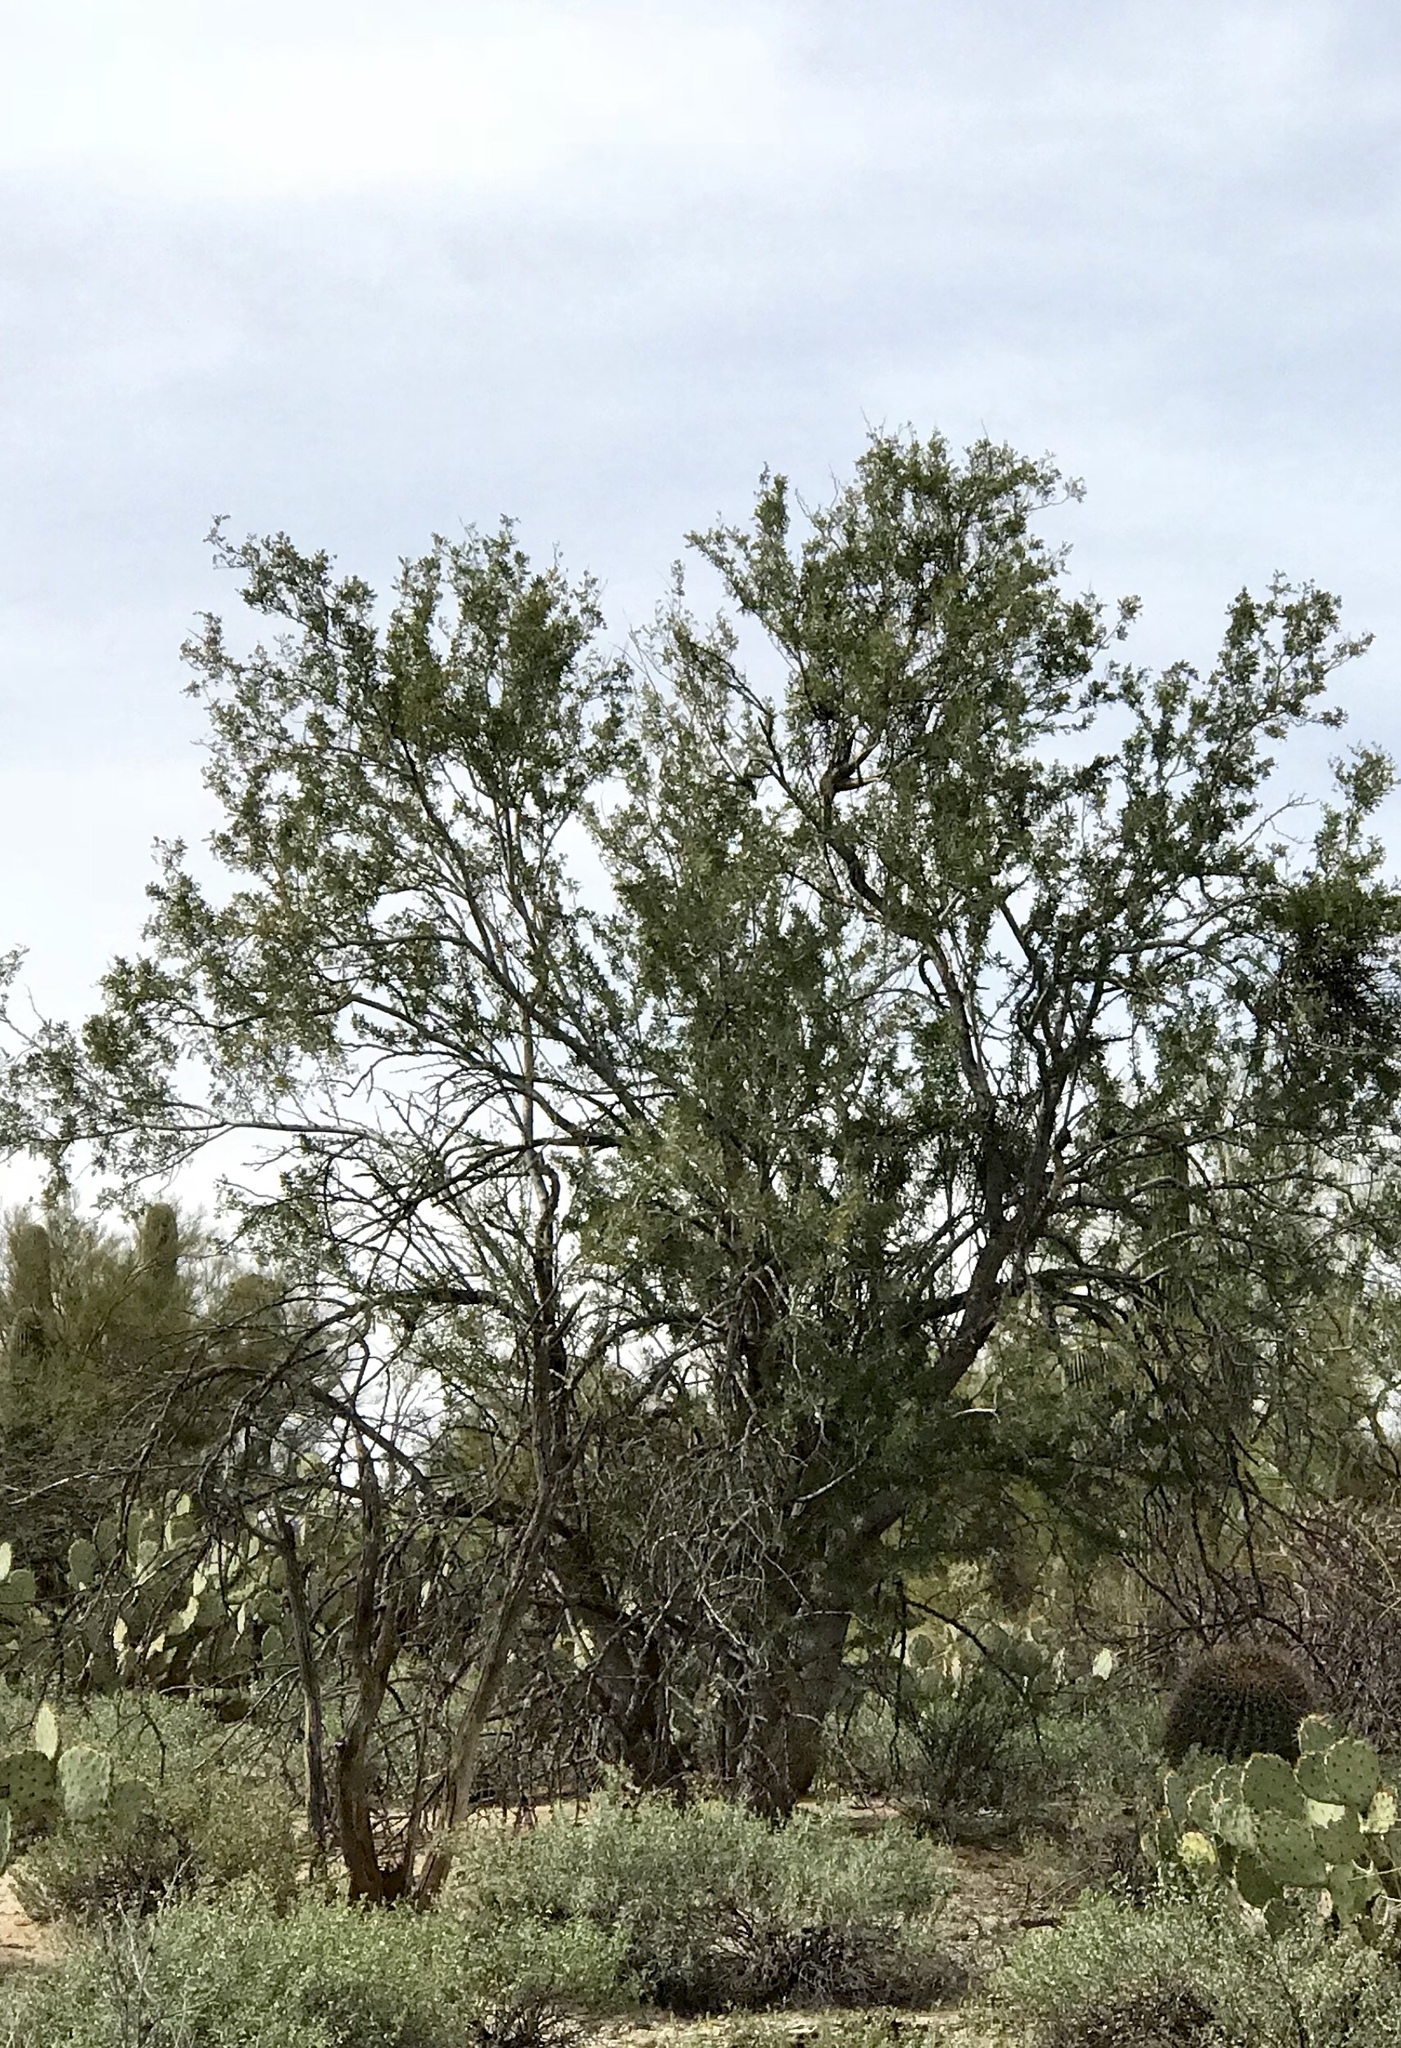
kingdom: Plantae
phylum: Tracheophyta
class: Magnoliopsida
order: Fabales
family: Fabaceae
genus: Olneya
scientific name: Olneya tesota
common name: Desert ironwood
